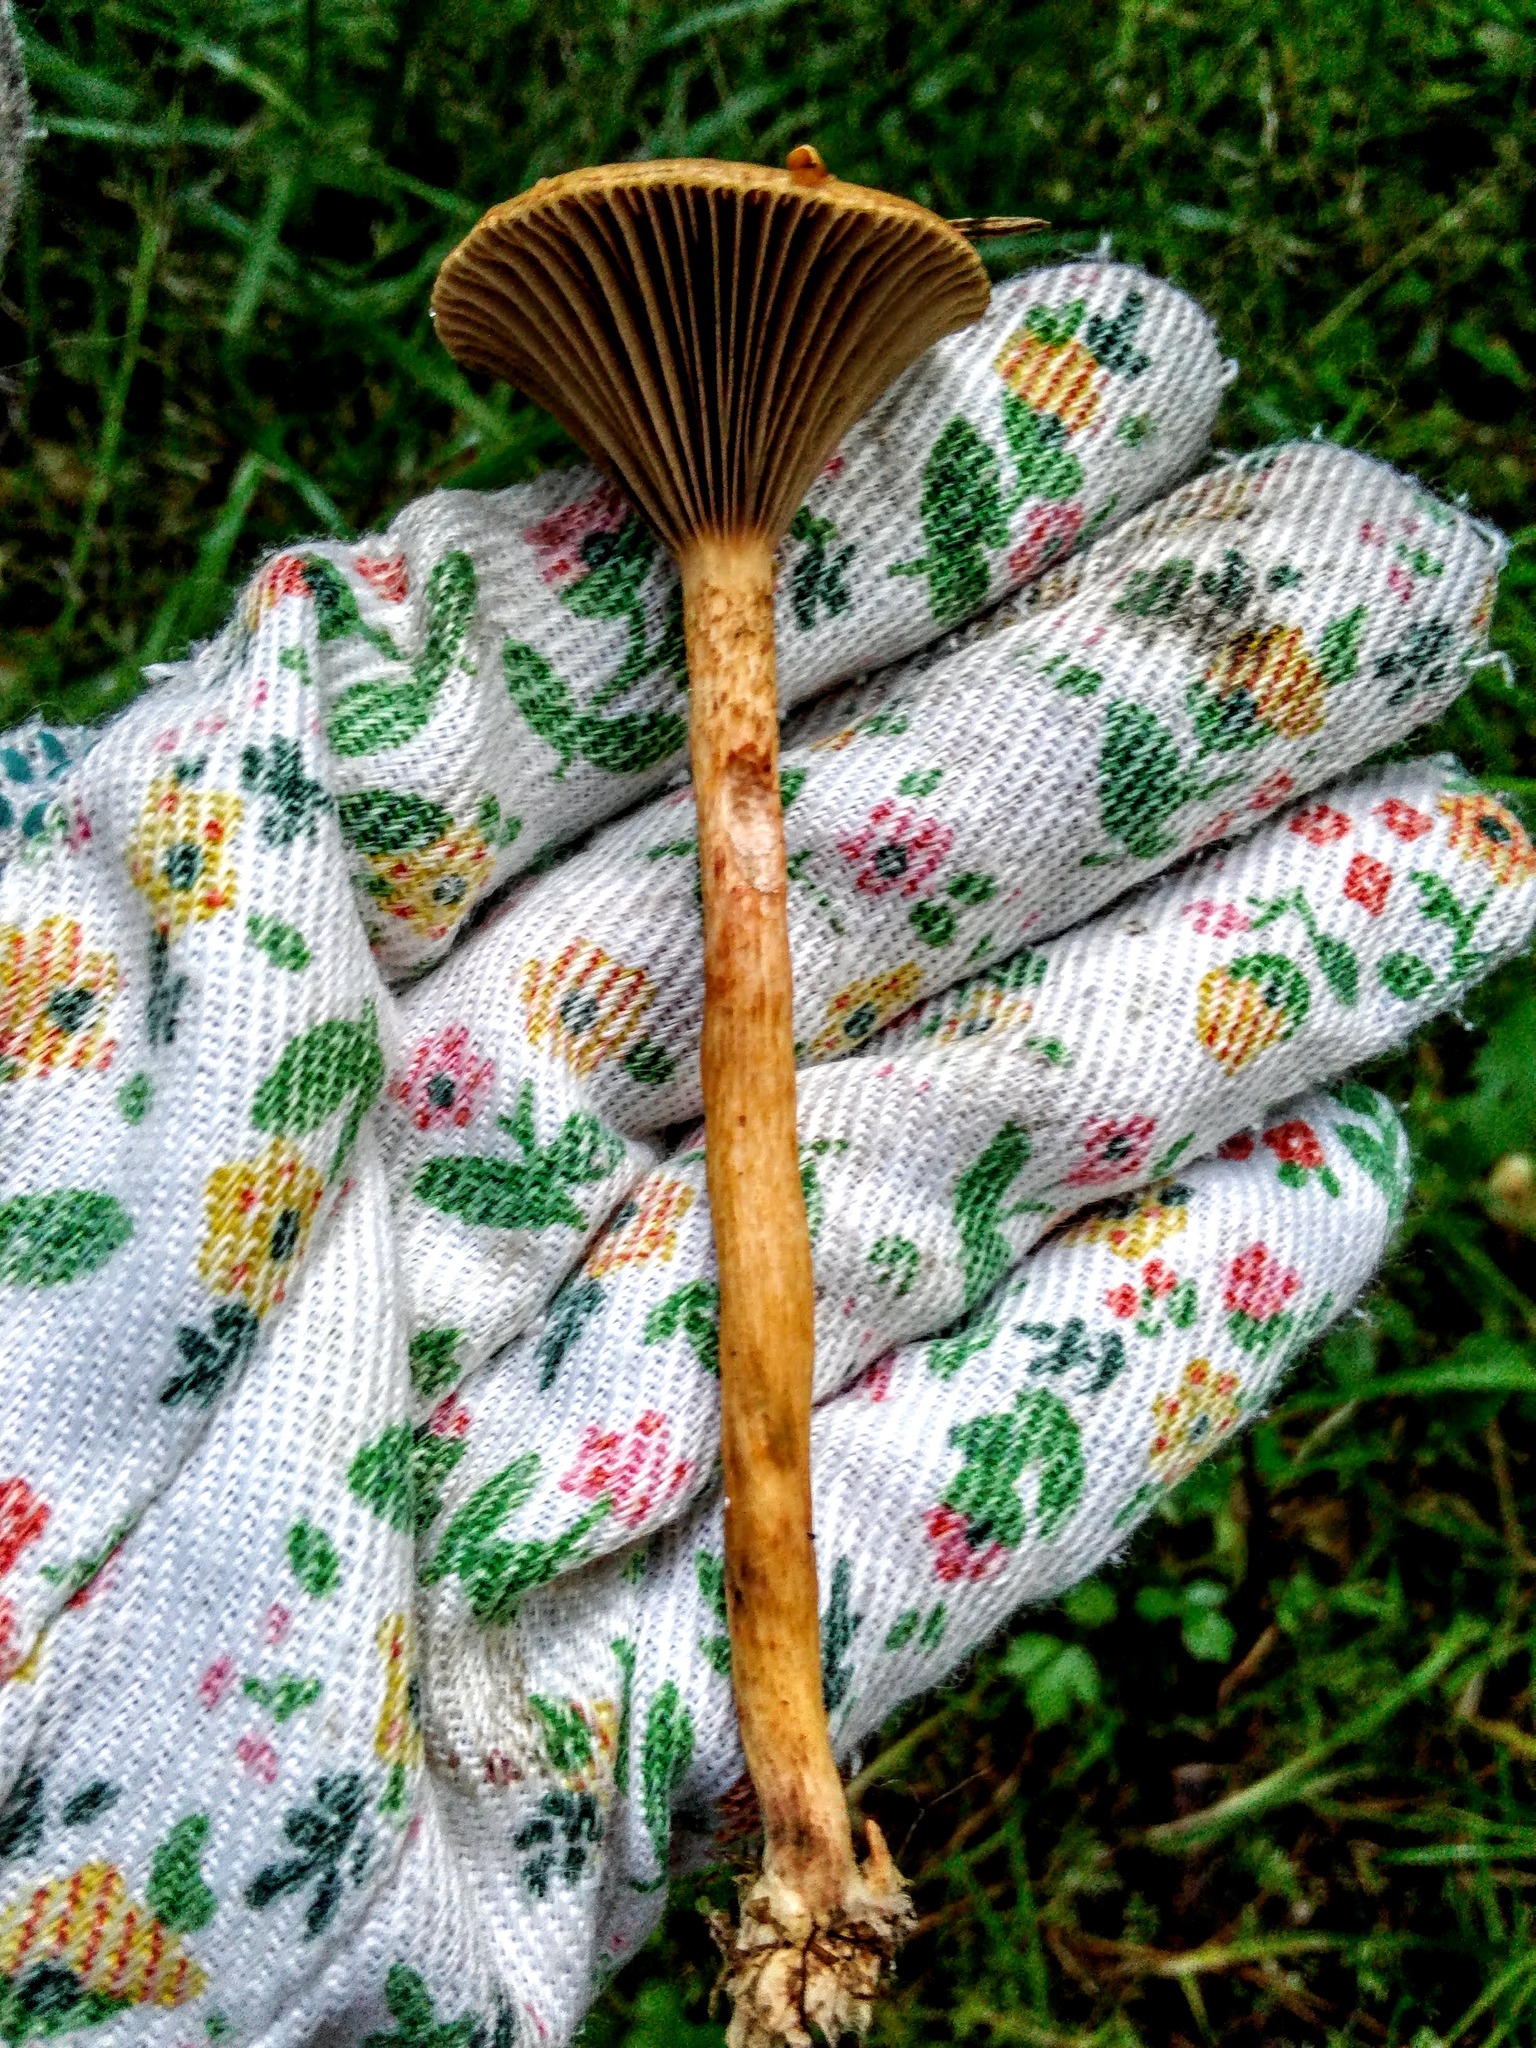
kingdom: Fungi
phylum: Basidiomycota
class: Agaricomycetes
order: Boletales
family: Gomphidiaceae
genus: Chroogomphus
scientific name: Chroogomphus rutilus
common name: Copper spike
